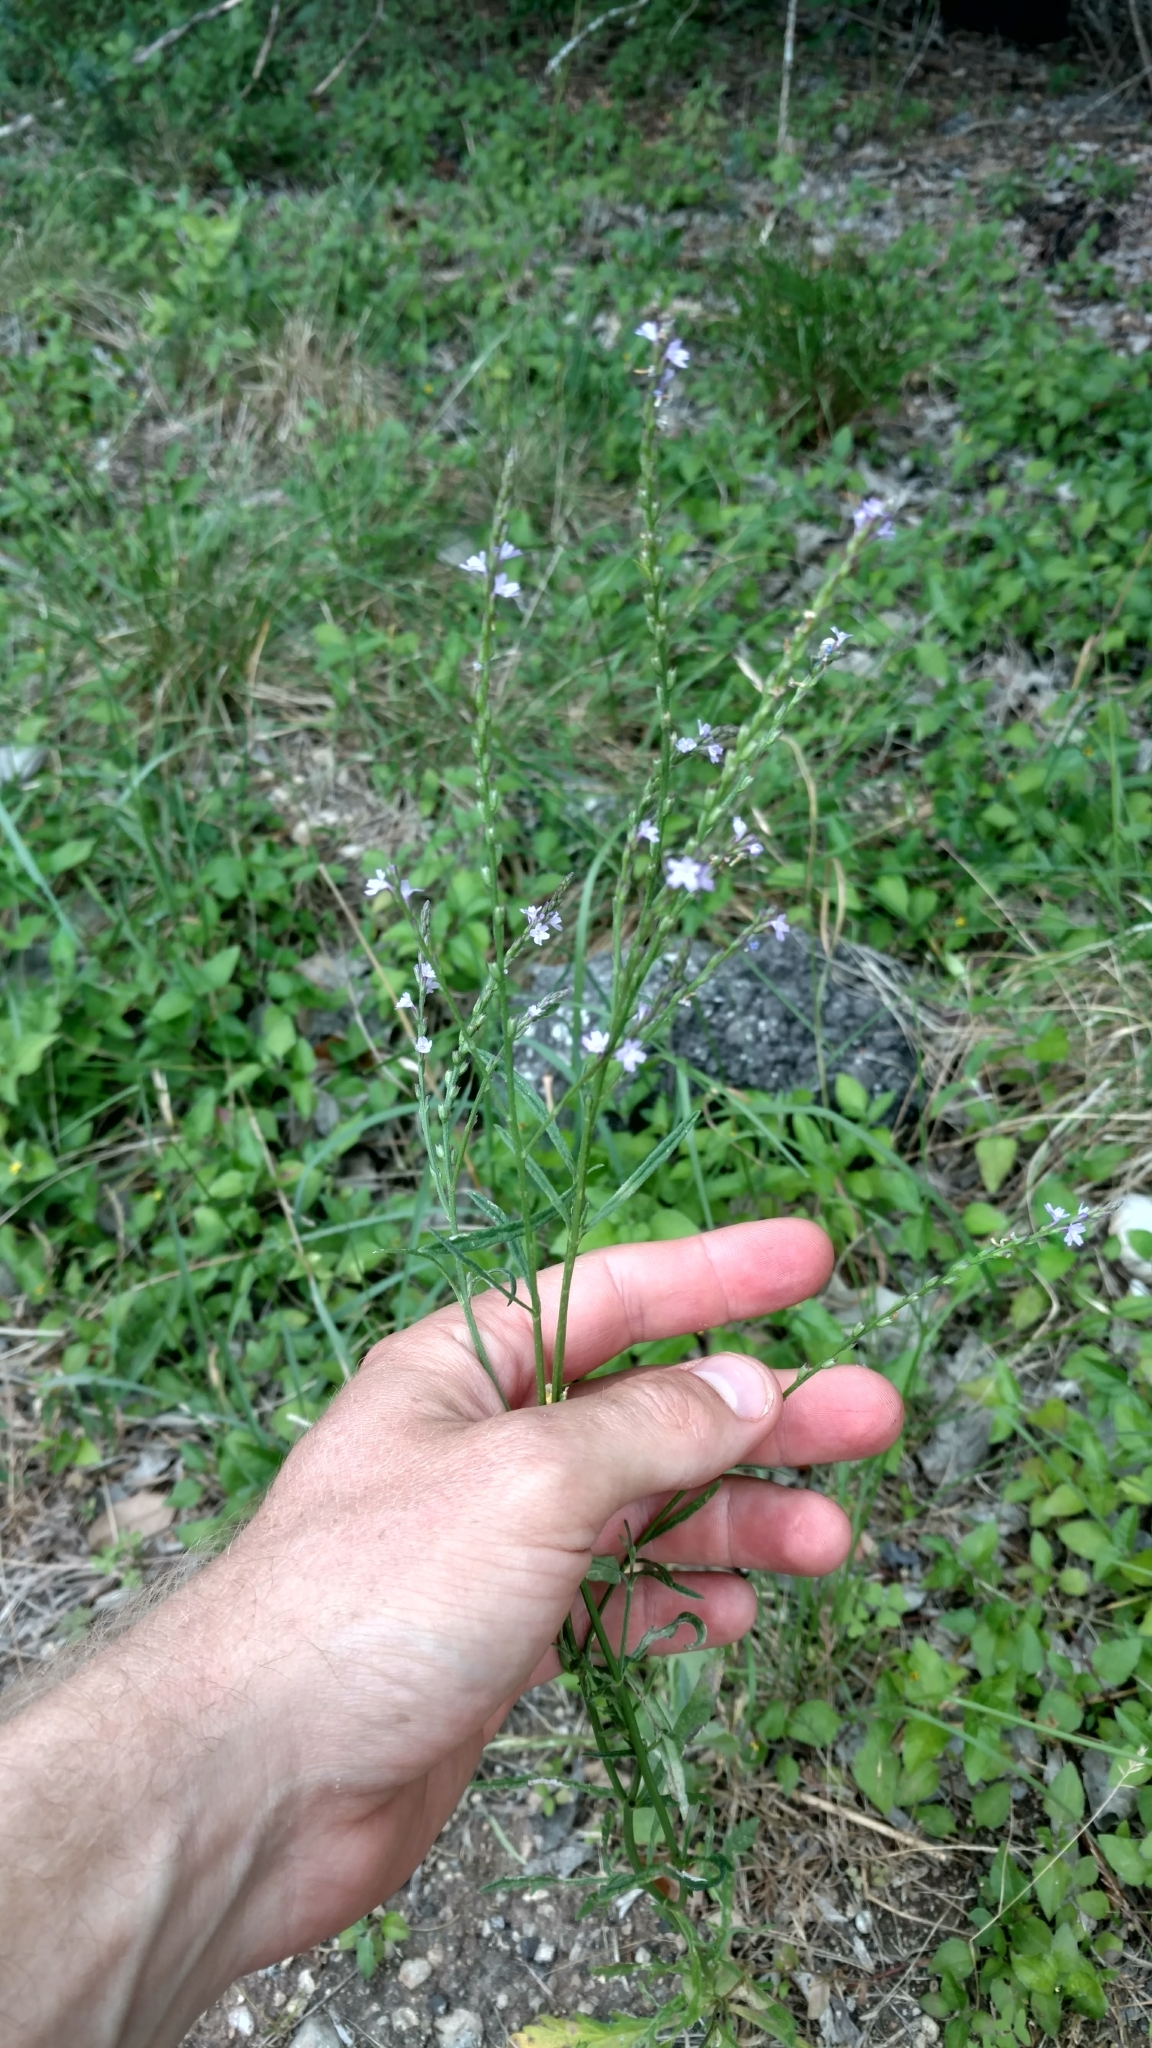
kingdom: Plantae
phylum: Tracheophyta
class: Magnoliopsida
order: Lamiales
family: Verbenaceae
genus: Verbena
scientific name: Verbena halei
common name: Texas vervain
